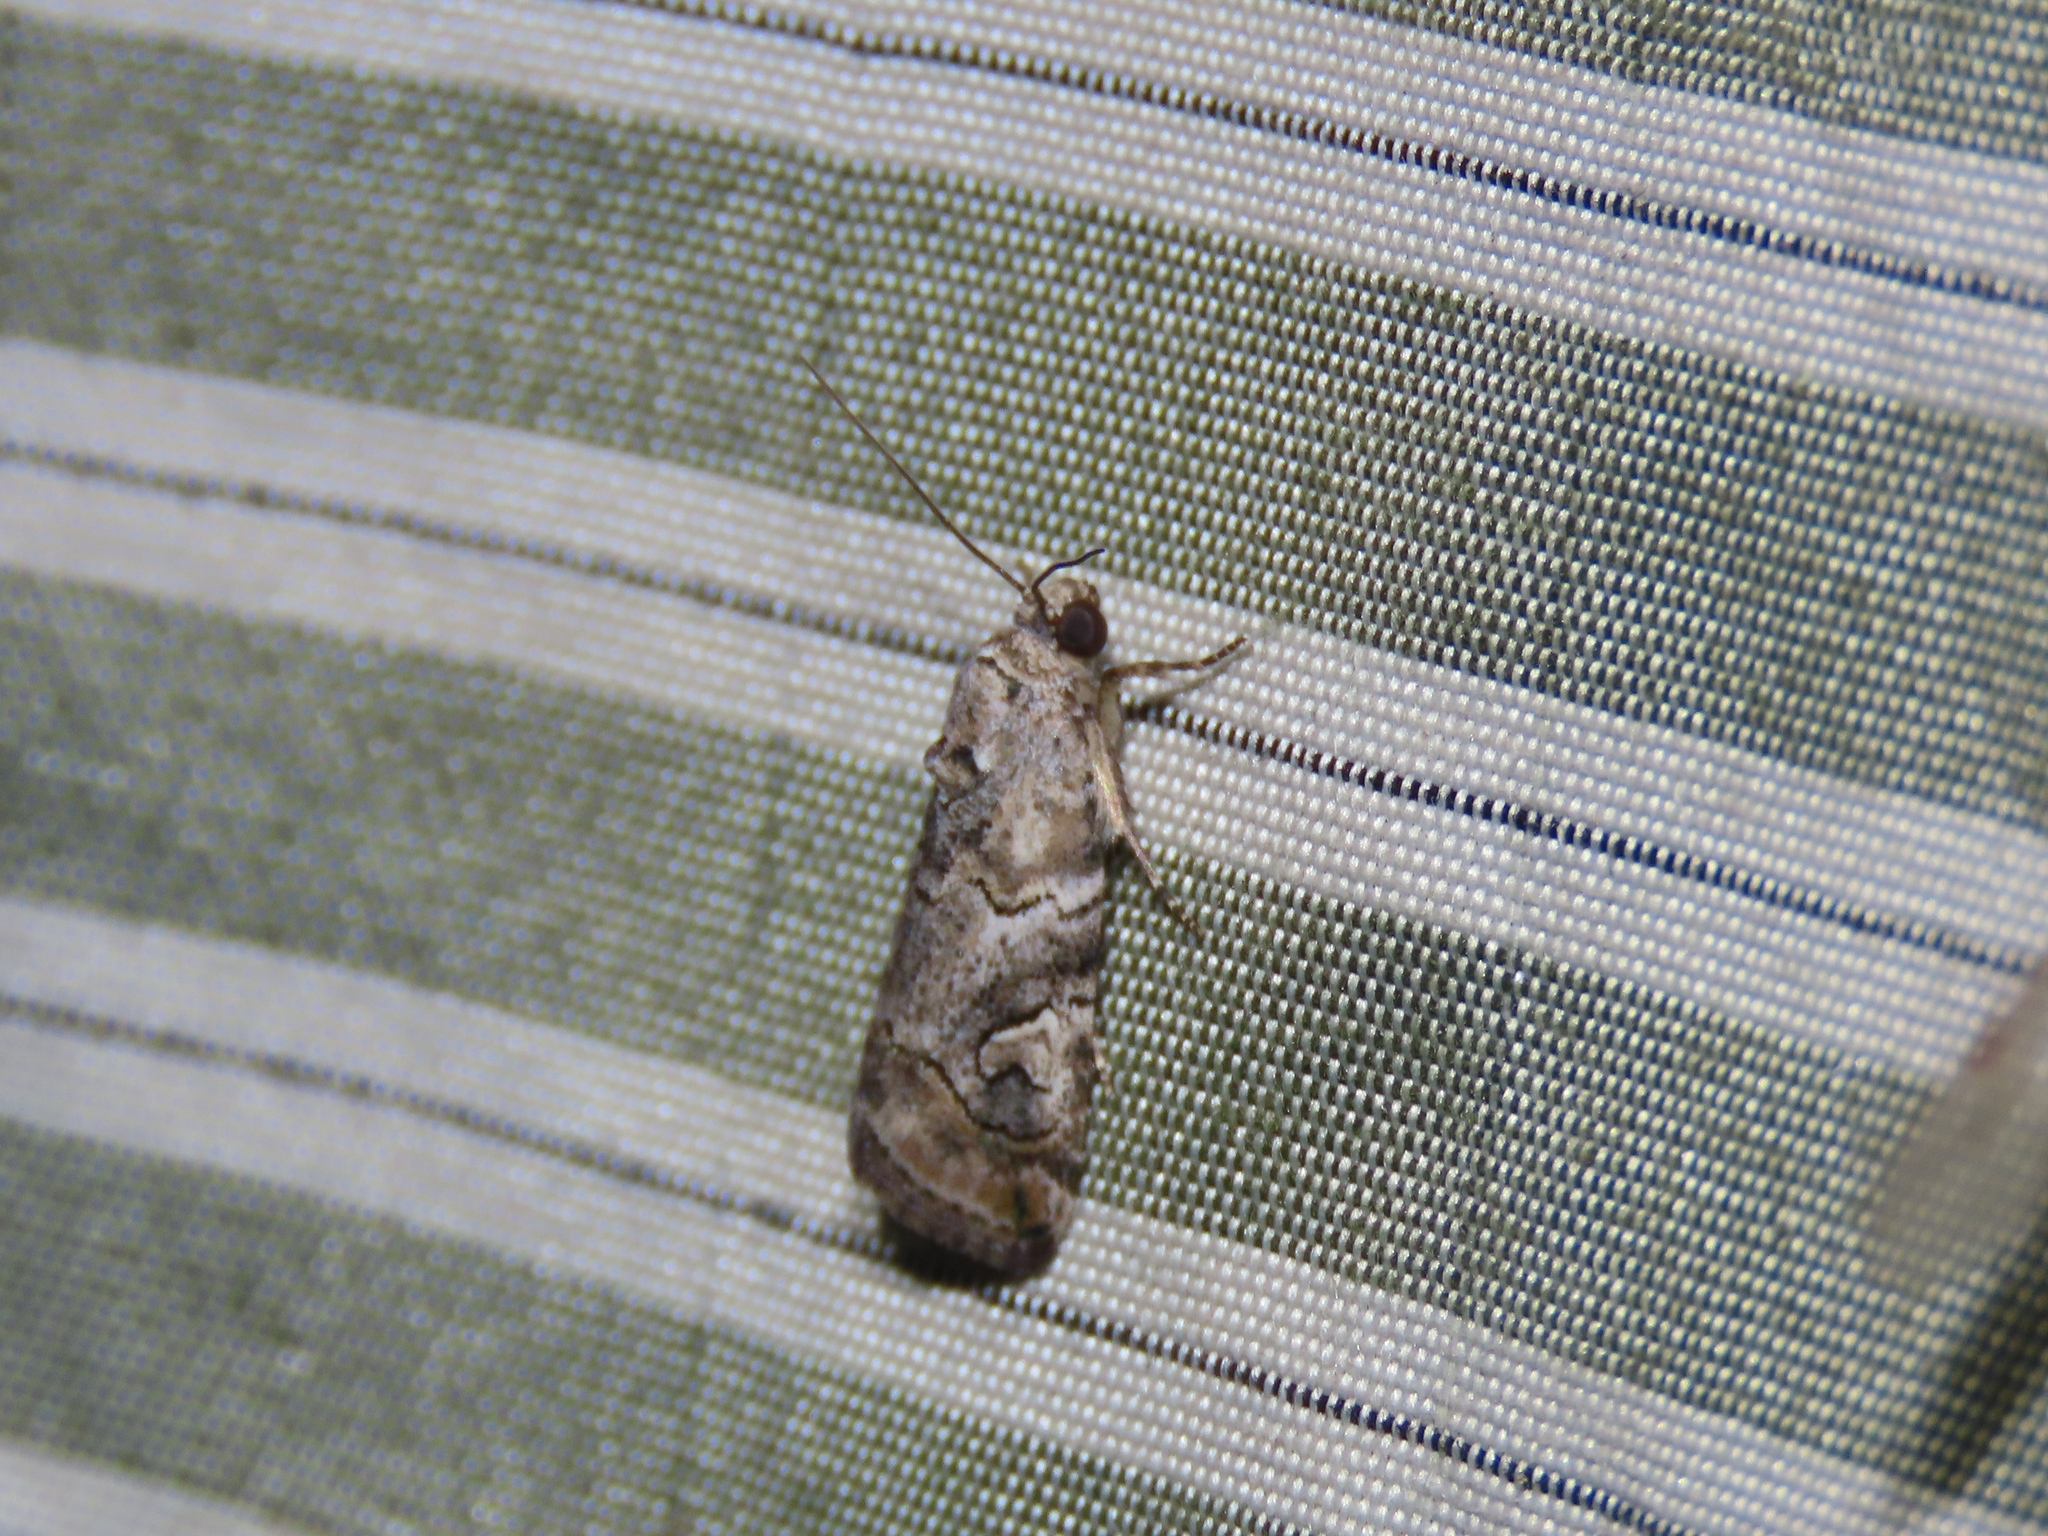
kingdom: Animalia
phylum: Arthropoda
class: Insecta
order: Lepidoptera
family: Noctuidae
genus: Metaponpneumata
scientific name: Metaponpneumata rogenhoferi
